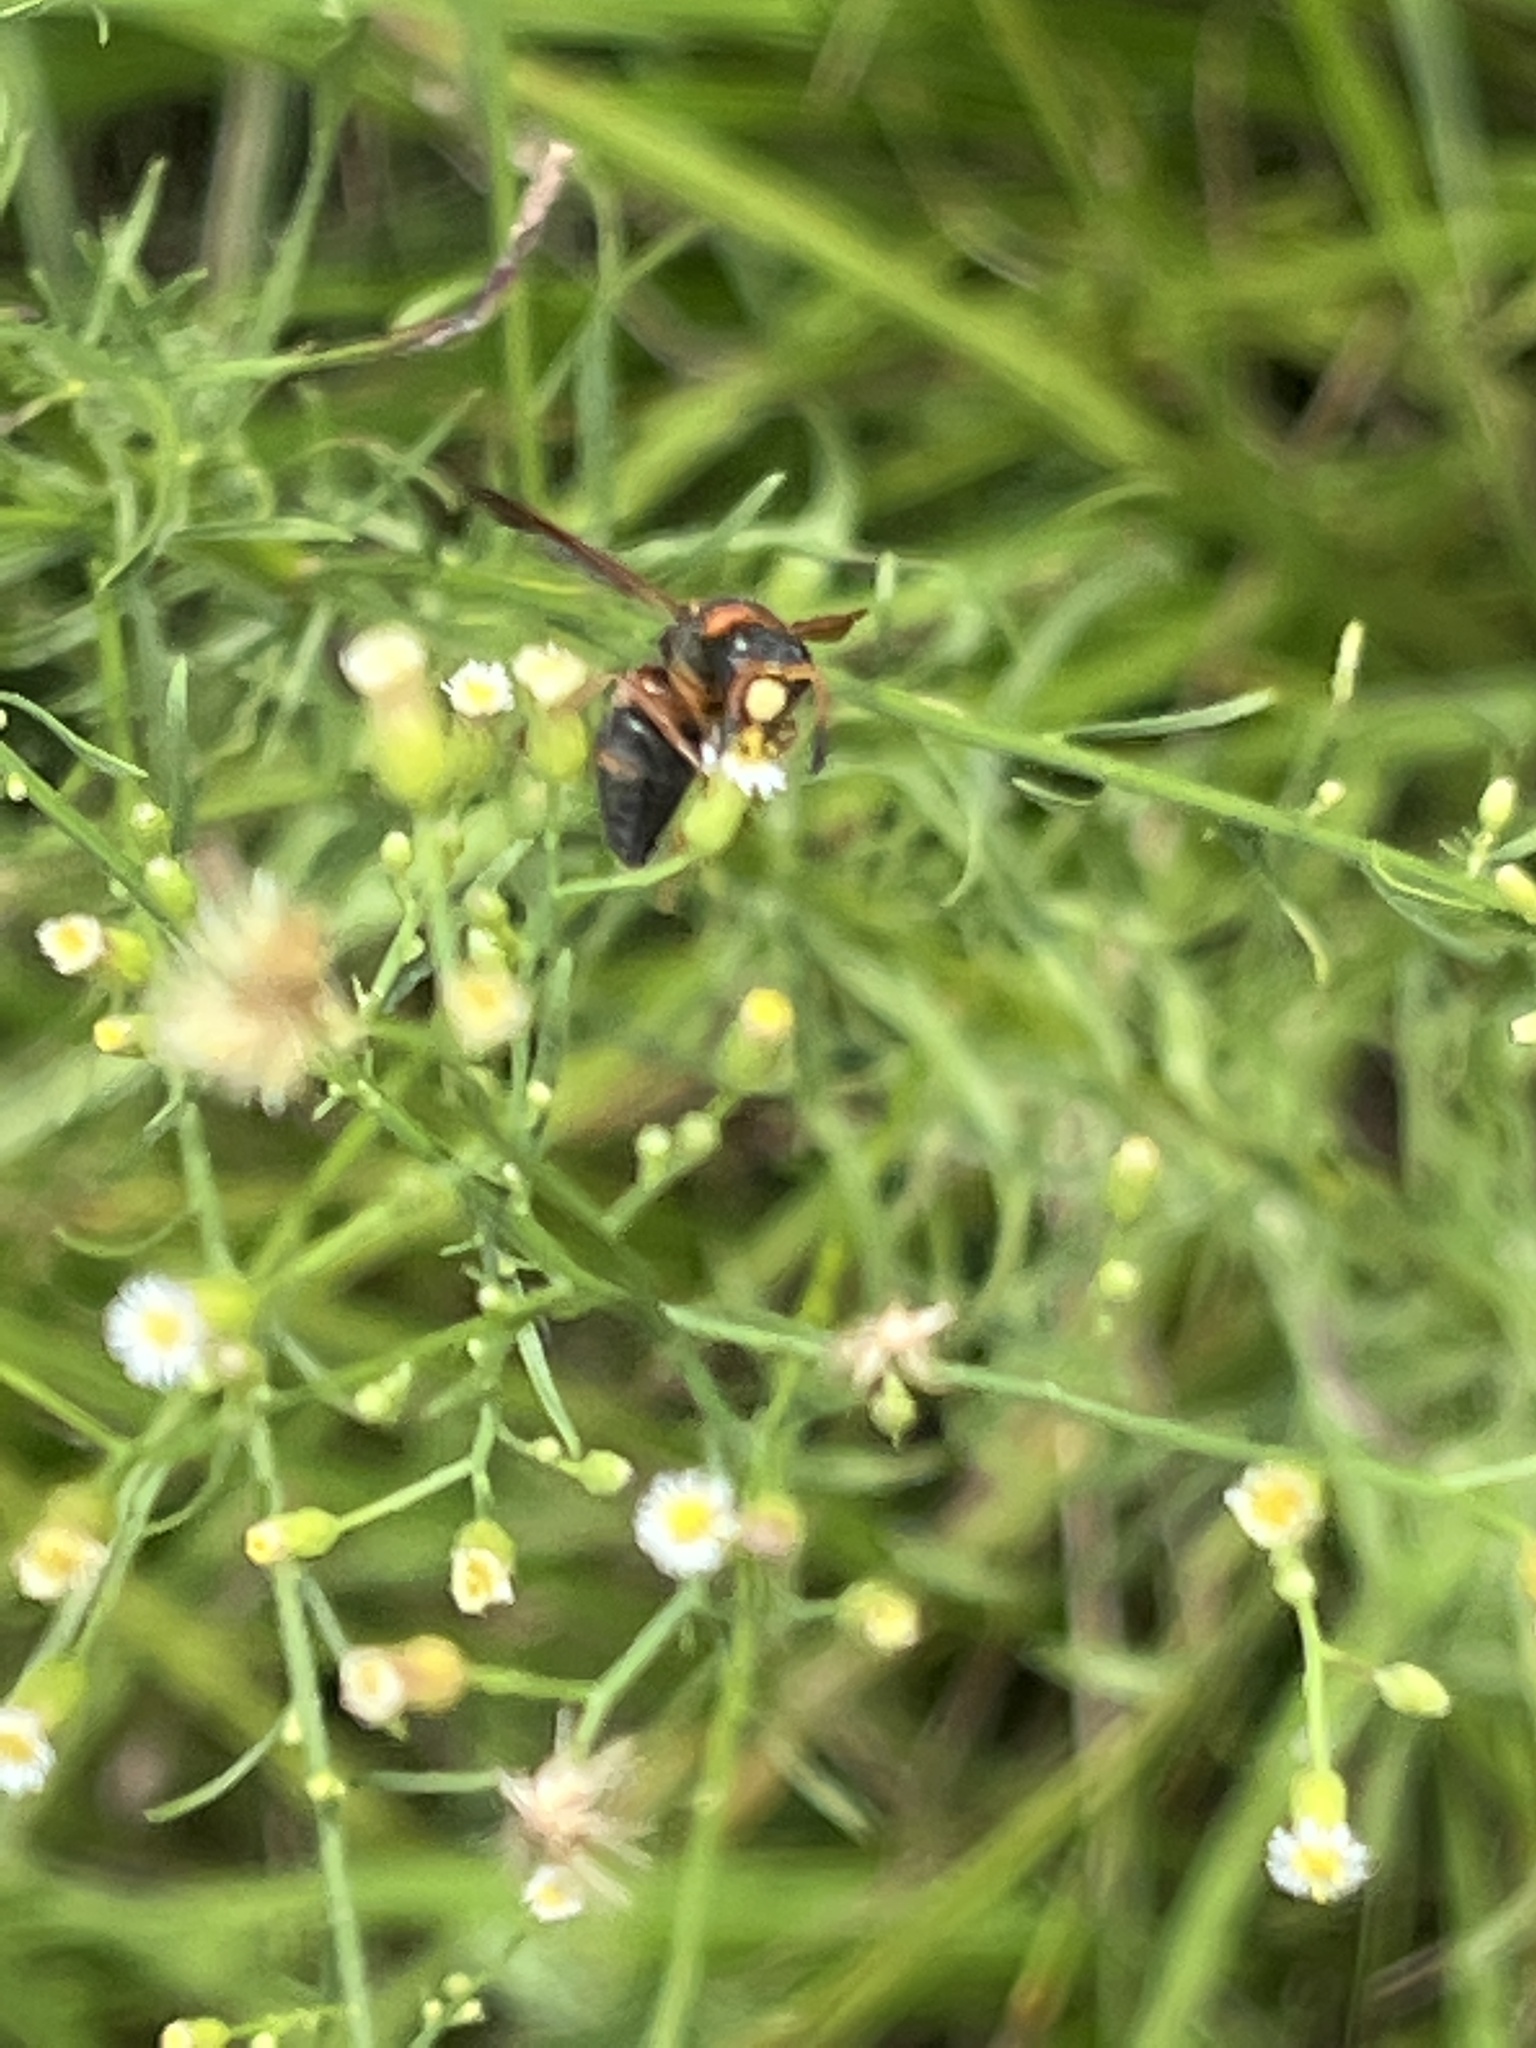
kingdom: Animalia
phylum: Arthropoda
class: Insecta
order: Hymenoptera
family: Eumenidae
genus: Pachodynerus
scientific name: Pachodynerus erynnis
